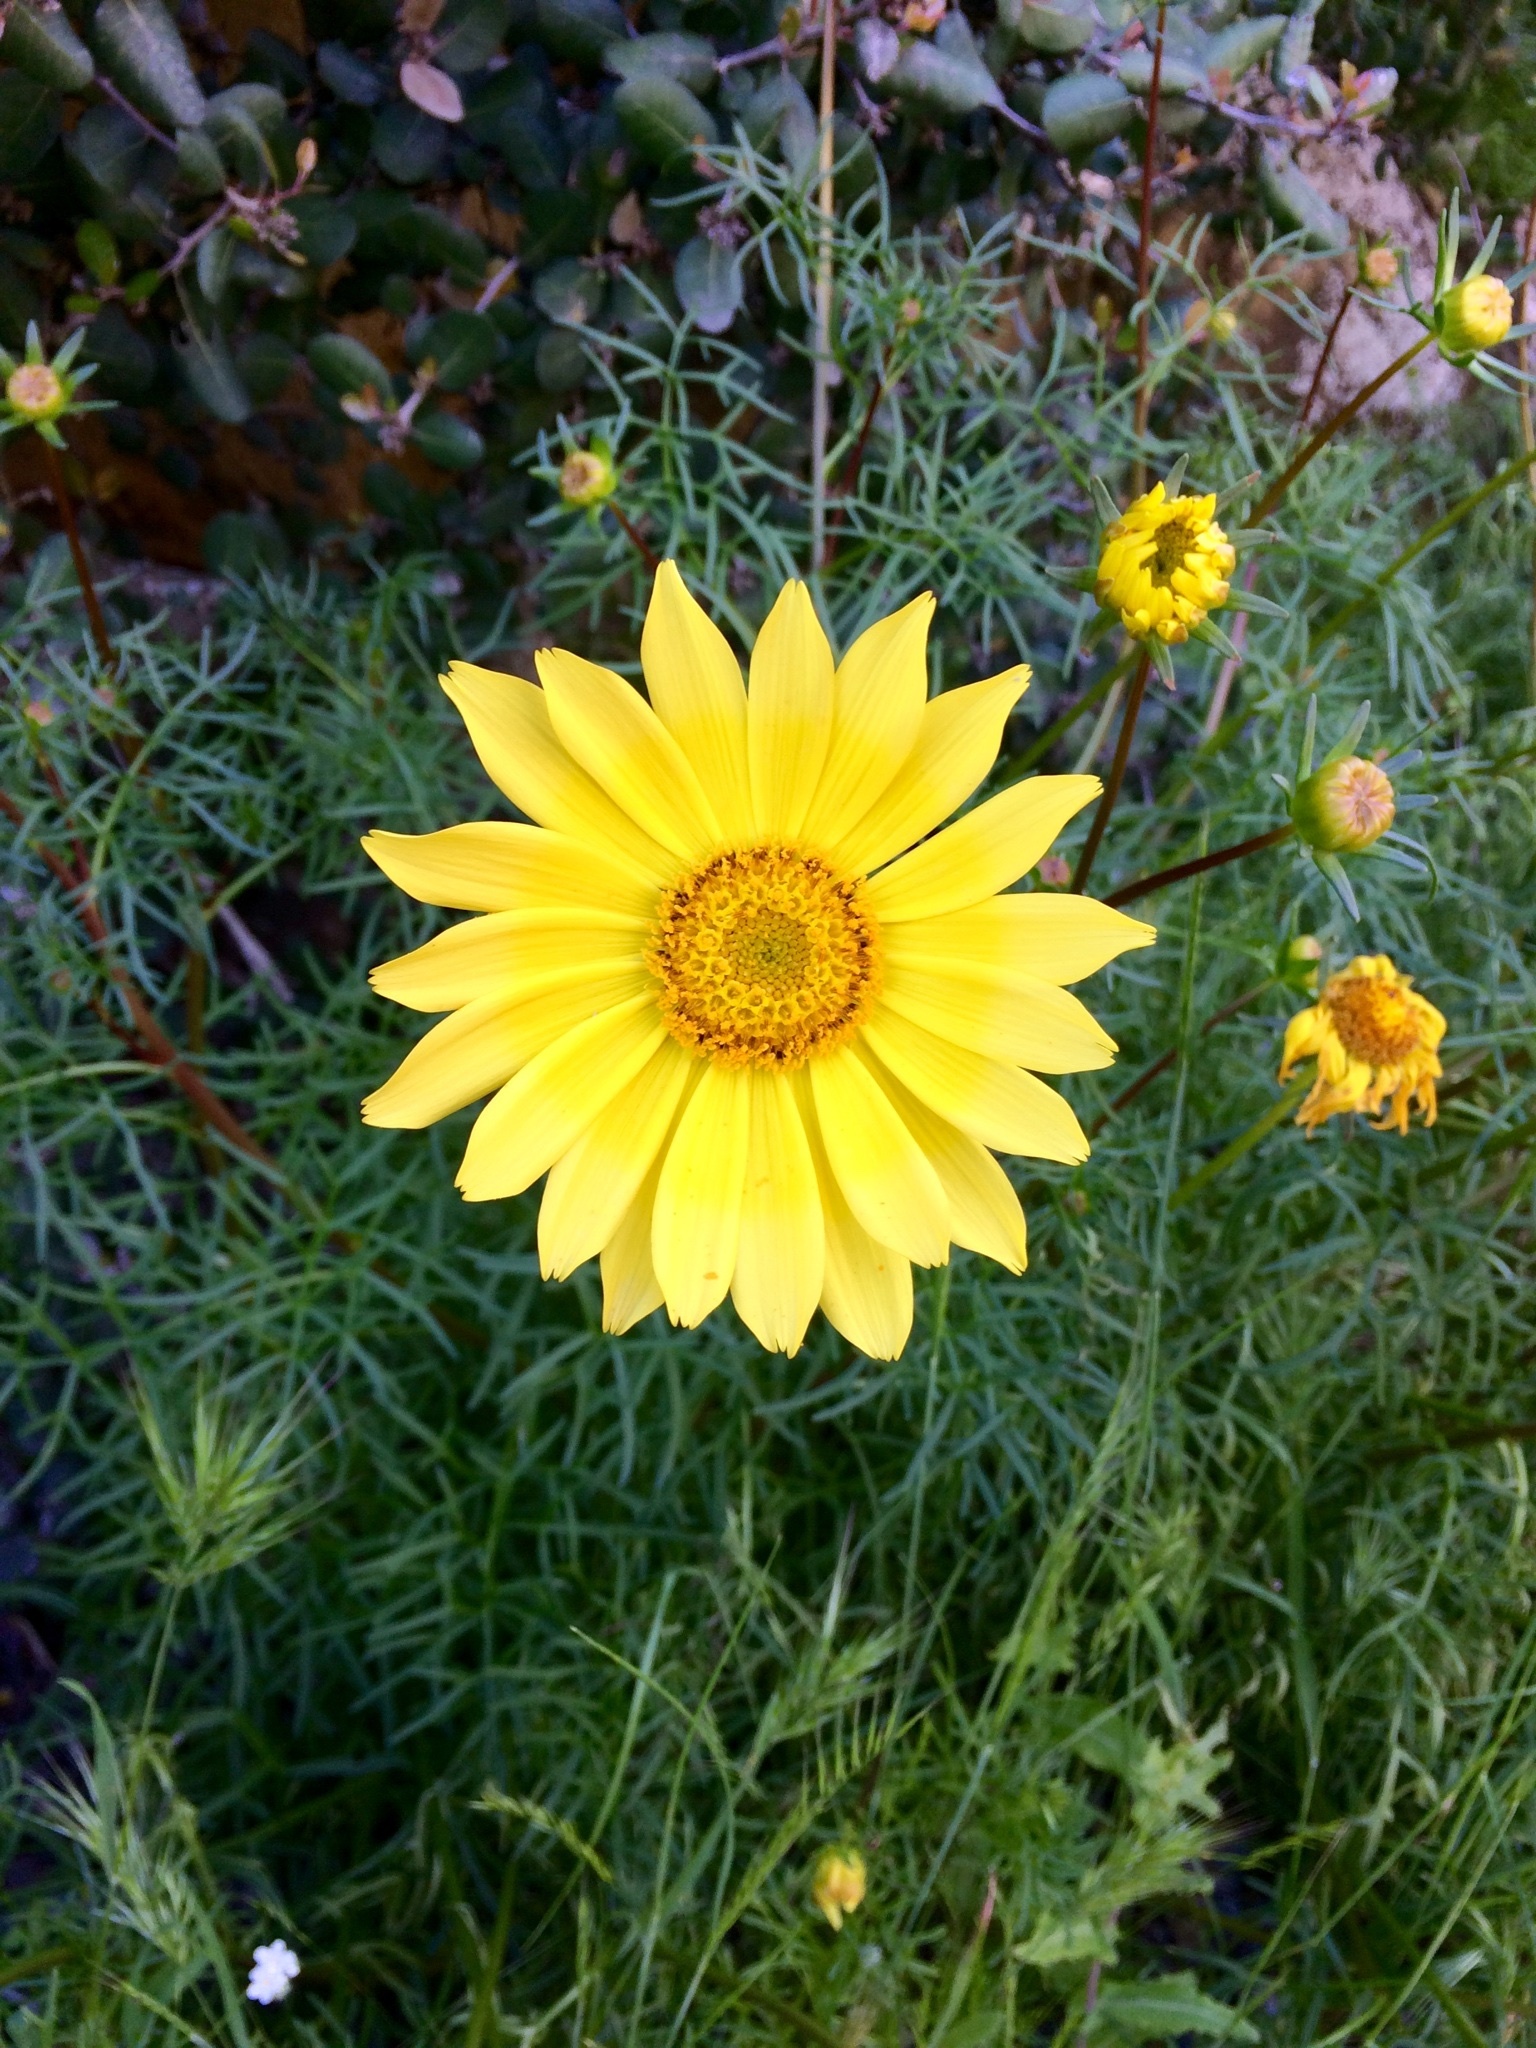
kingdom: Plantae
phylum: Tracheophyta
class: Magnoliopsida
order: Asterales
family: Asteraceae
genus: Coreopsis
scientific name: Coreopsis maritima
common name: Sea-dahlia
